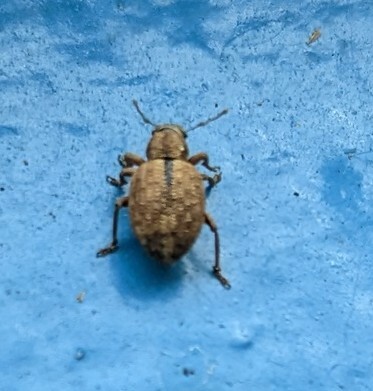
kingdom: Animalia
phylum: Arthropoda
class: Insecta
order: Coleoptera
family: Curculionidae
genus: Strophosoma
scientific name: Strophosoma melanogrammum
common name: Weevil
